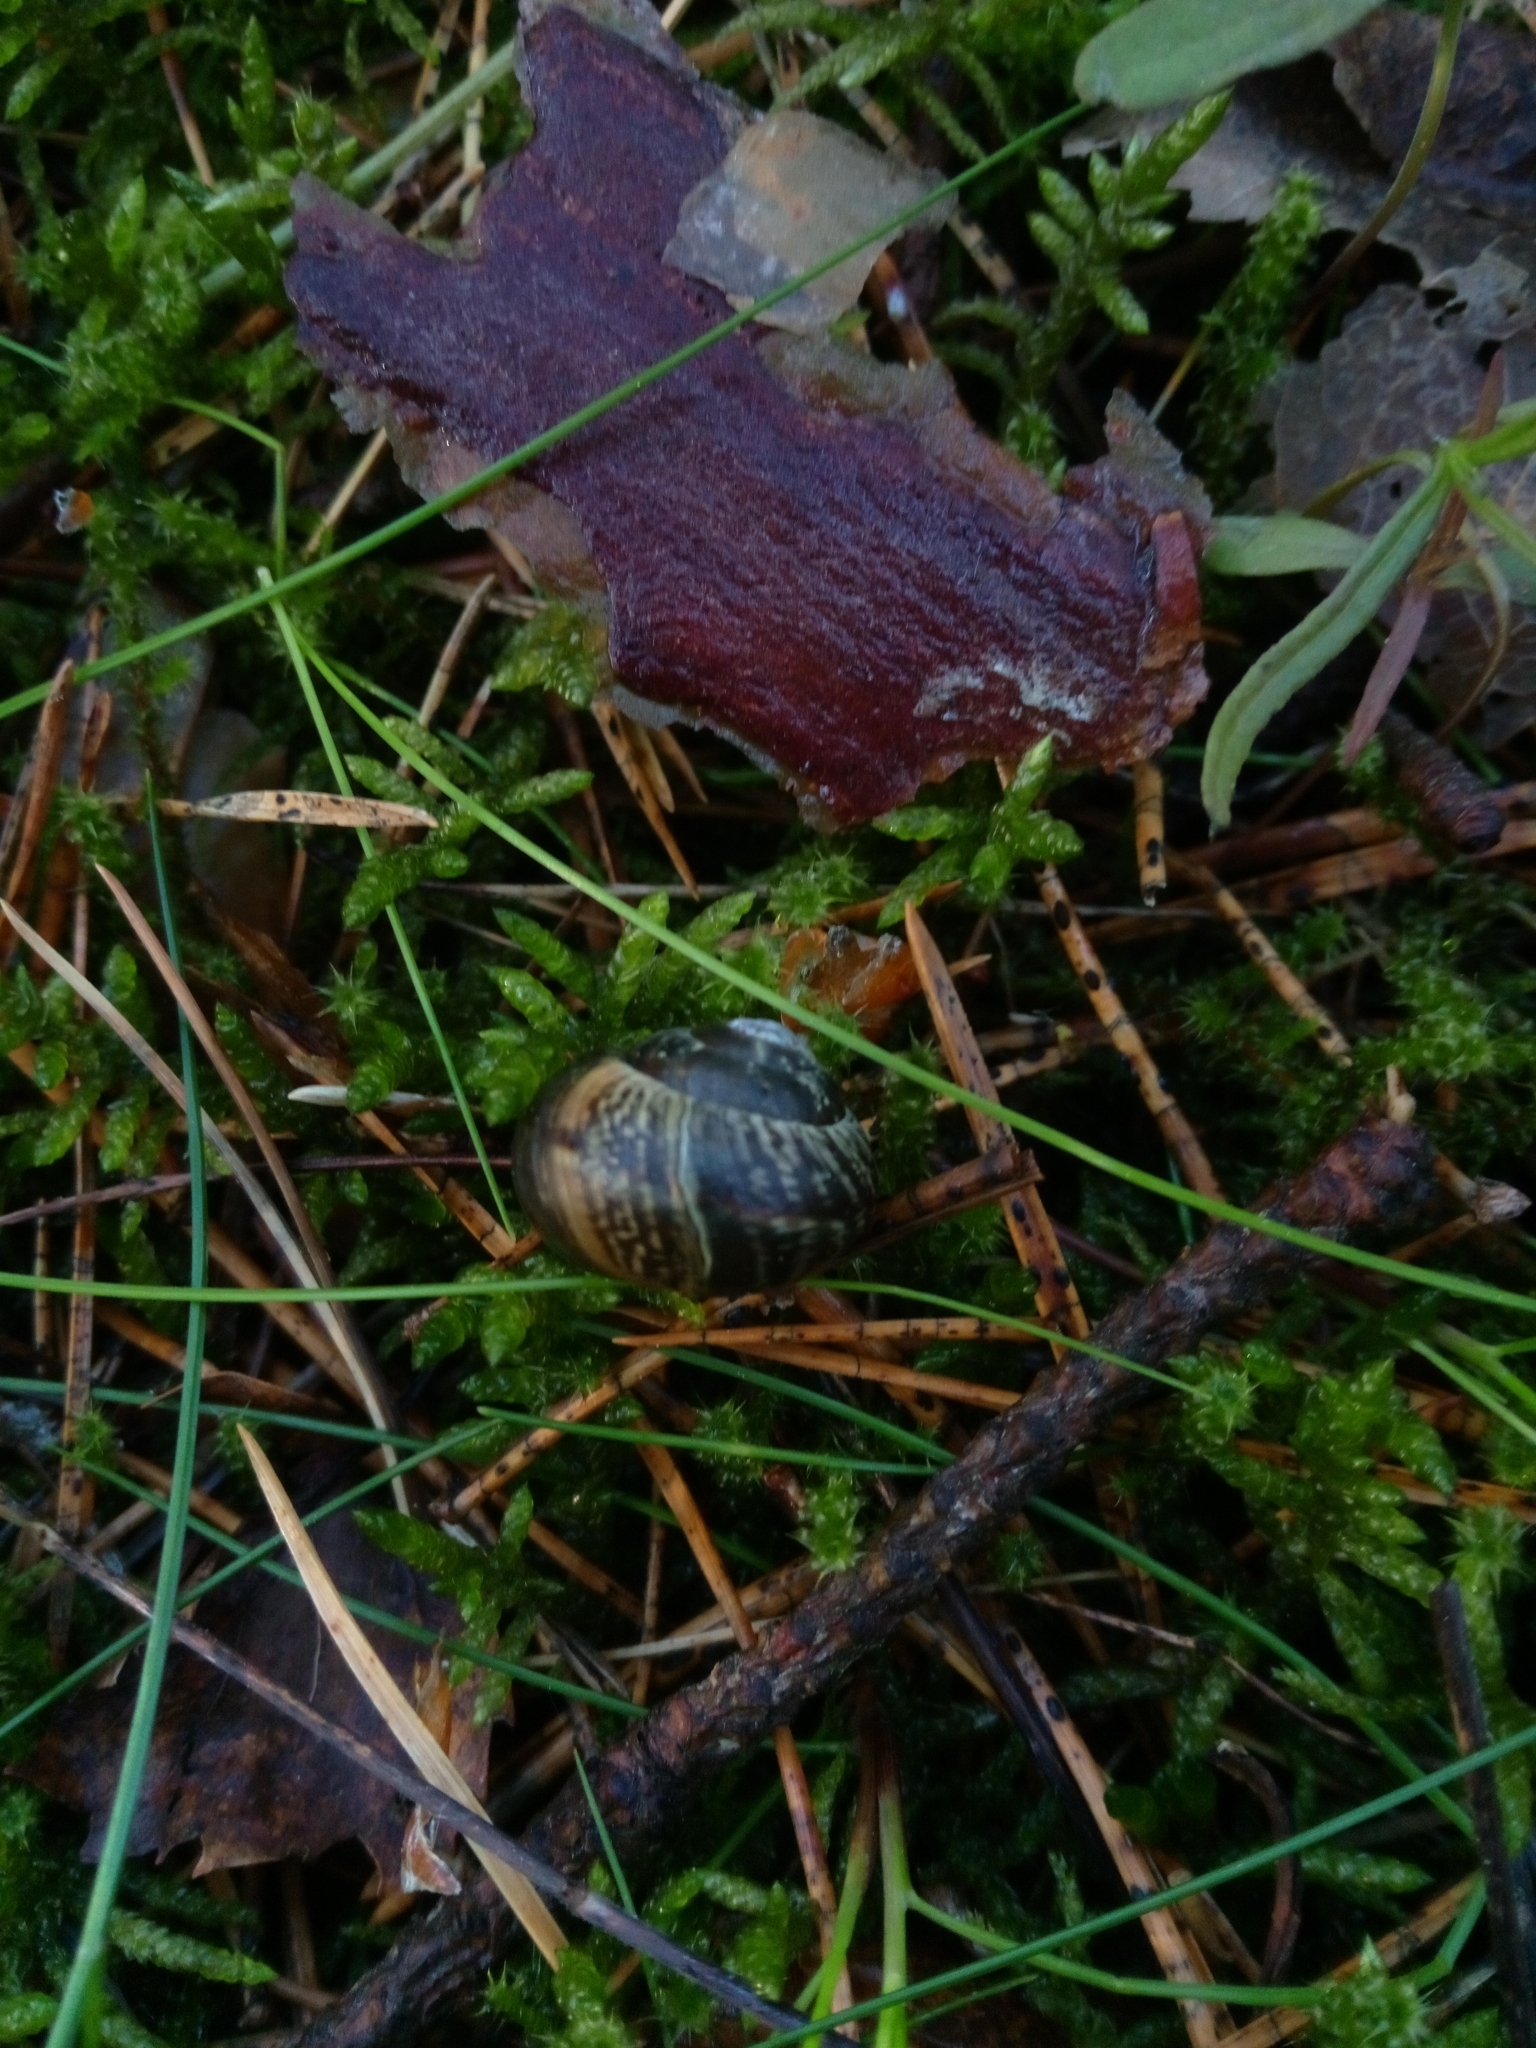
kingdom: Animalia
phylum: Mollusca
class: Gastropoda
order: Stylommatophora
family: Helicidae
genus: Arianta
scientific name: Arianta arbustorum
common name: Copse snail
